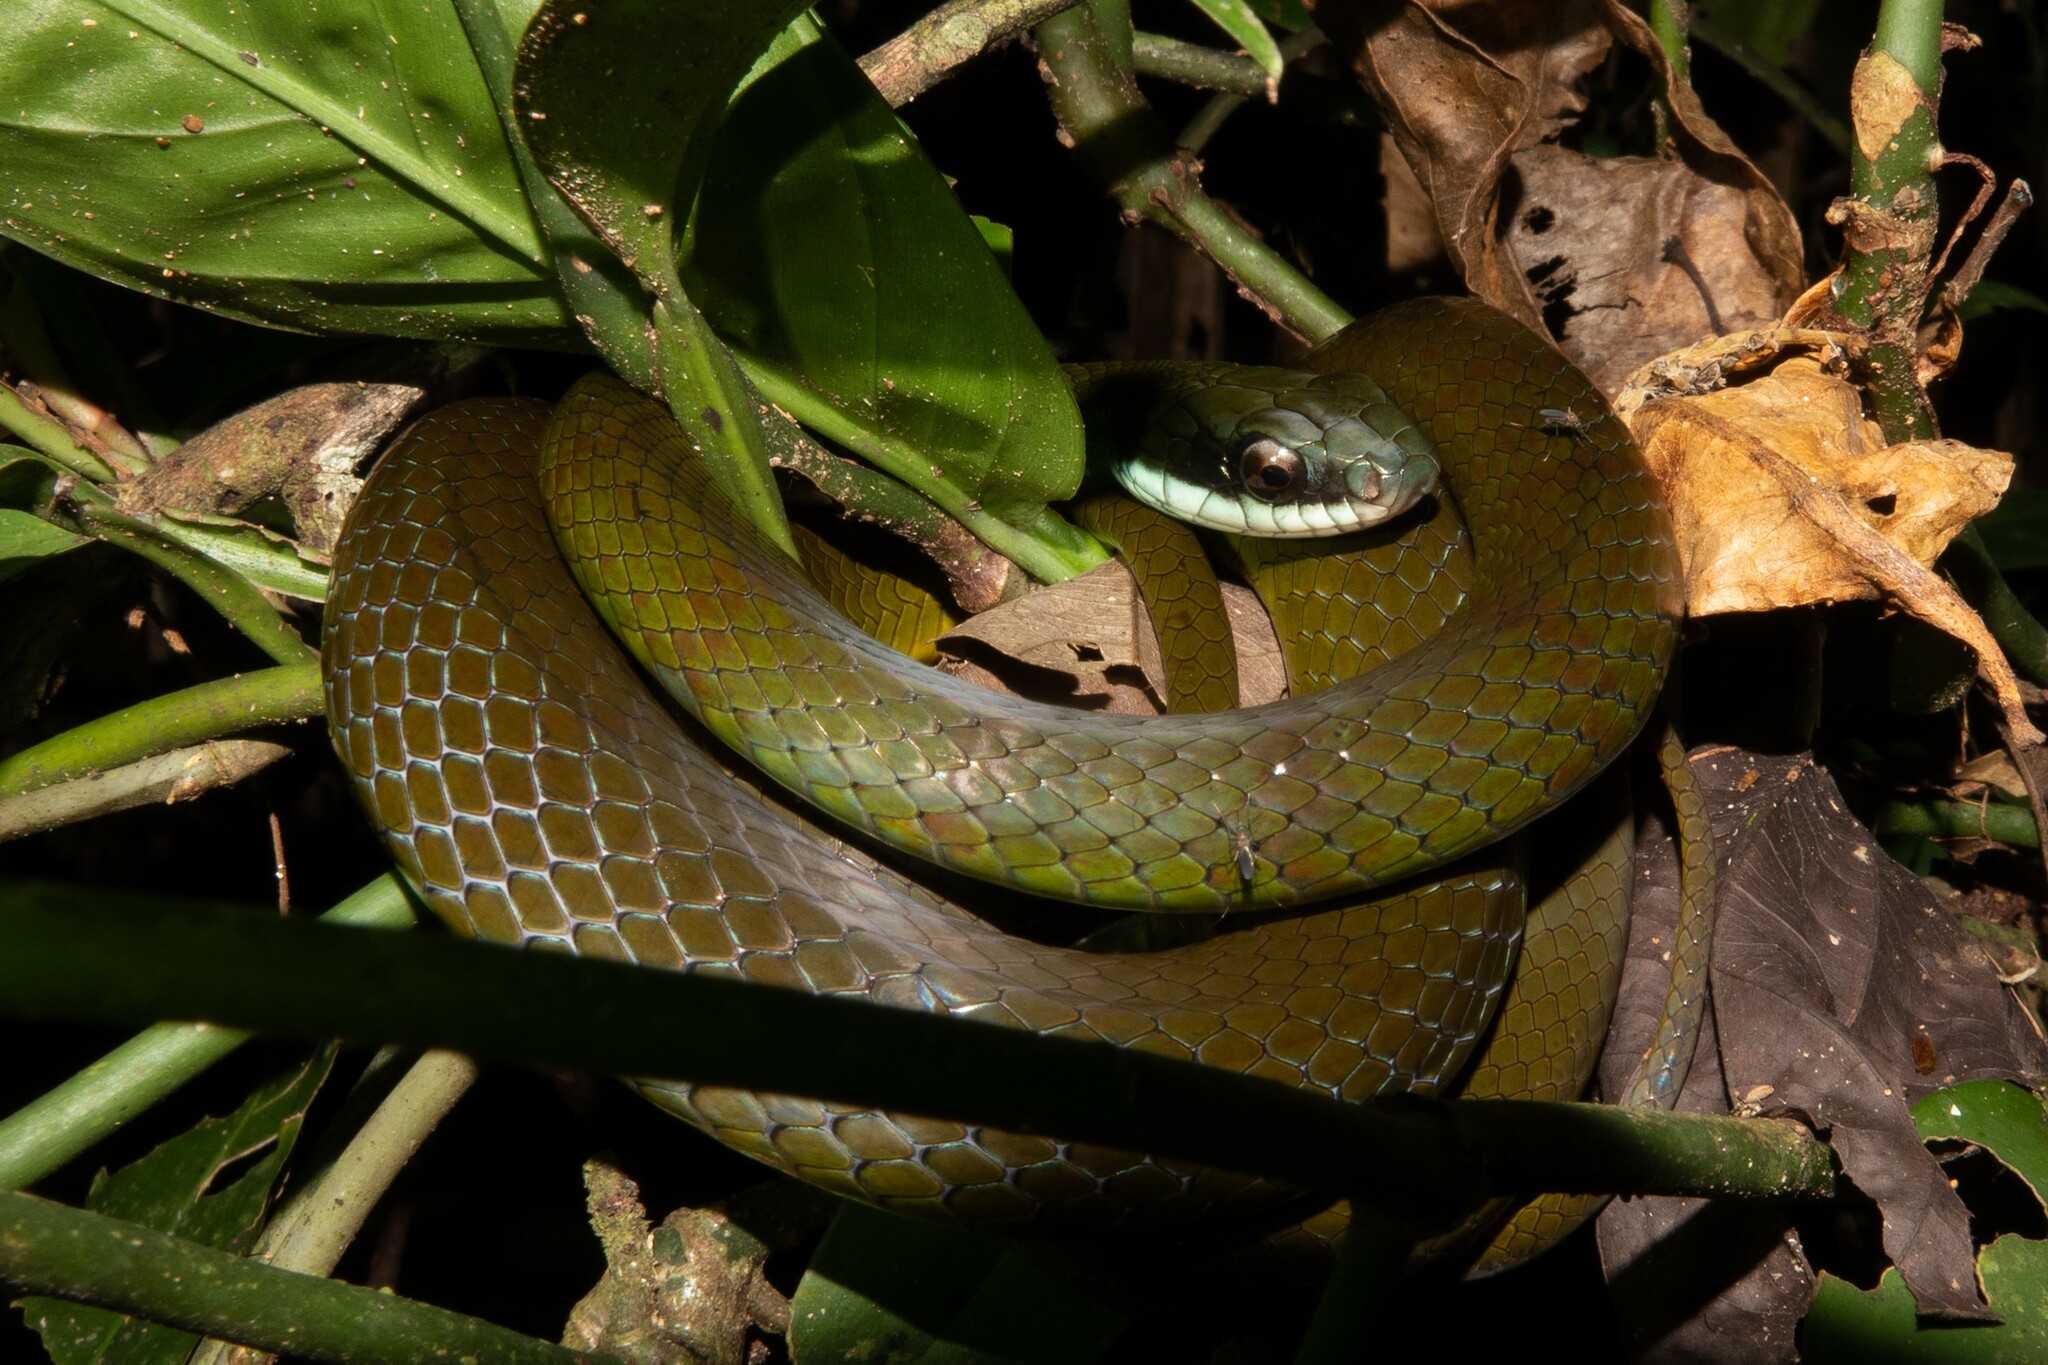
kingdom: Animalia
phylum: Chordata
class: Squamata
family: Colubridae
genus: Drymoluber
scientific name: Drymoluber dichrous
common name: Northern woodland racer
